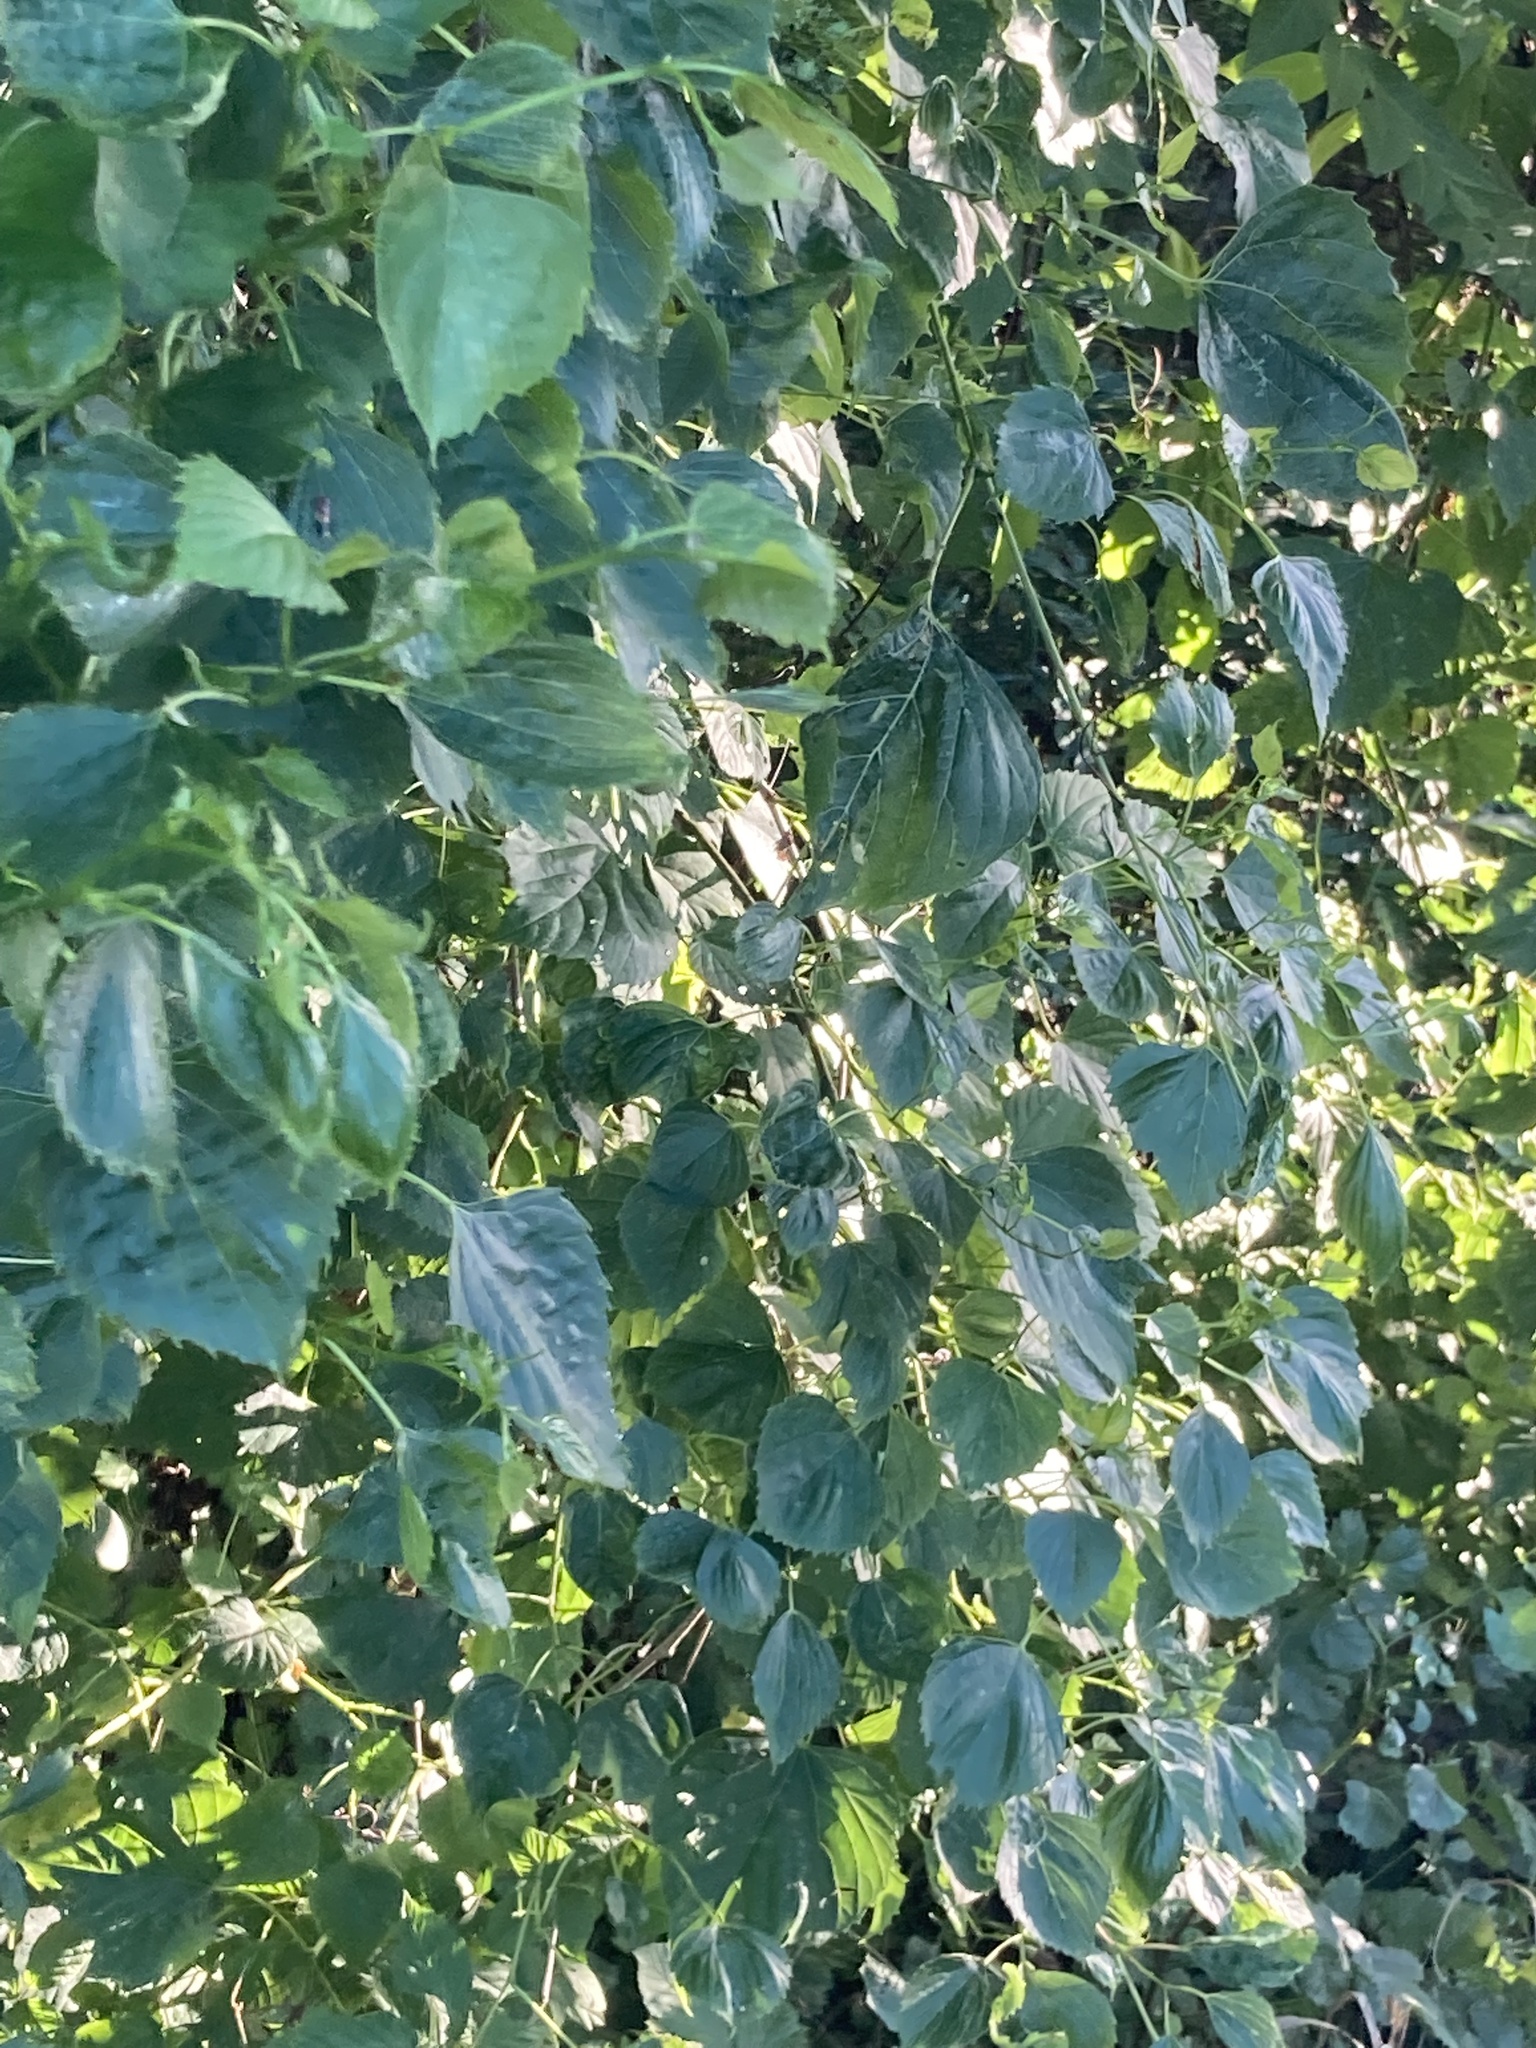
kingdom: Plantae
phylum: Tracheophyta
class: Magnoliopsida
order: Vitales
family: Vitaceae
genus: Ampelopsis
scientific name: Ampelopsis cordata
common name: Heart-leaf ampelopsis
